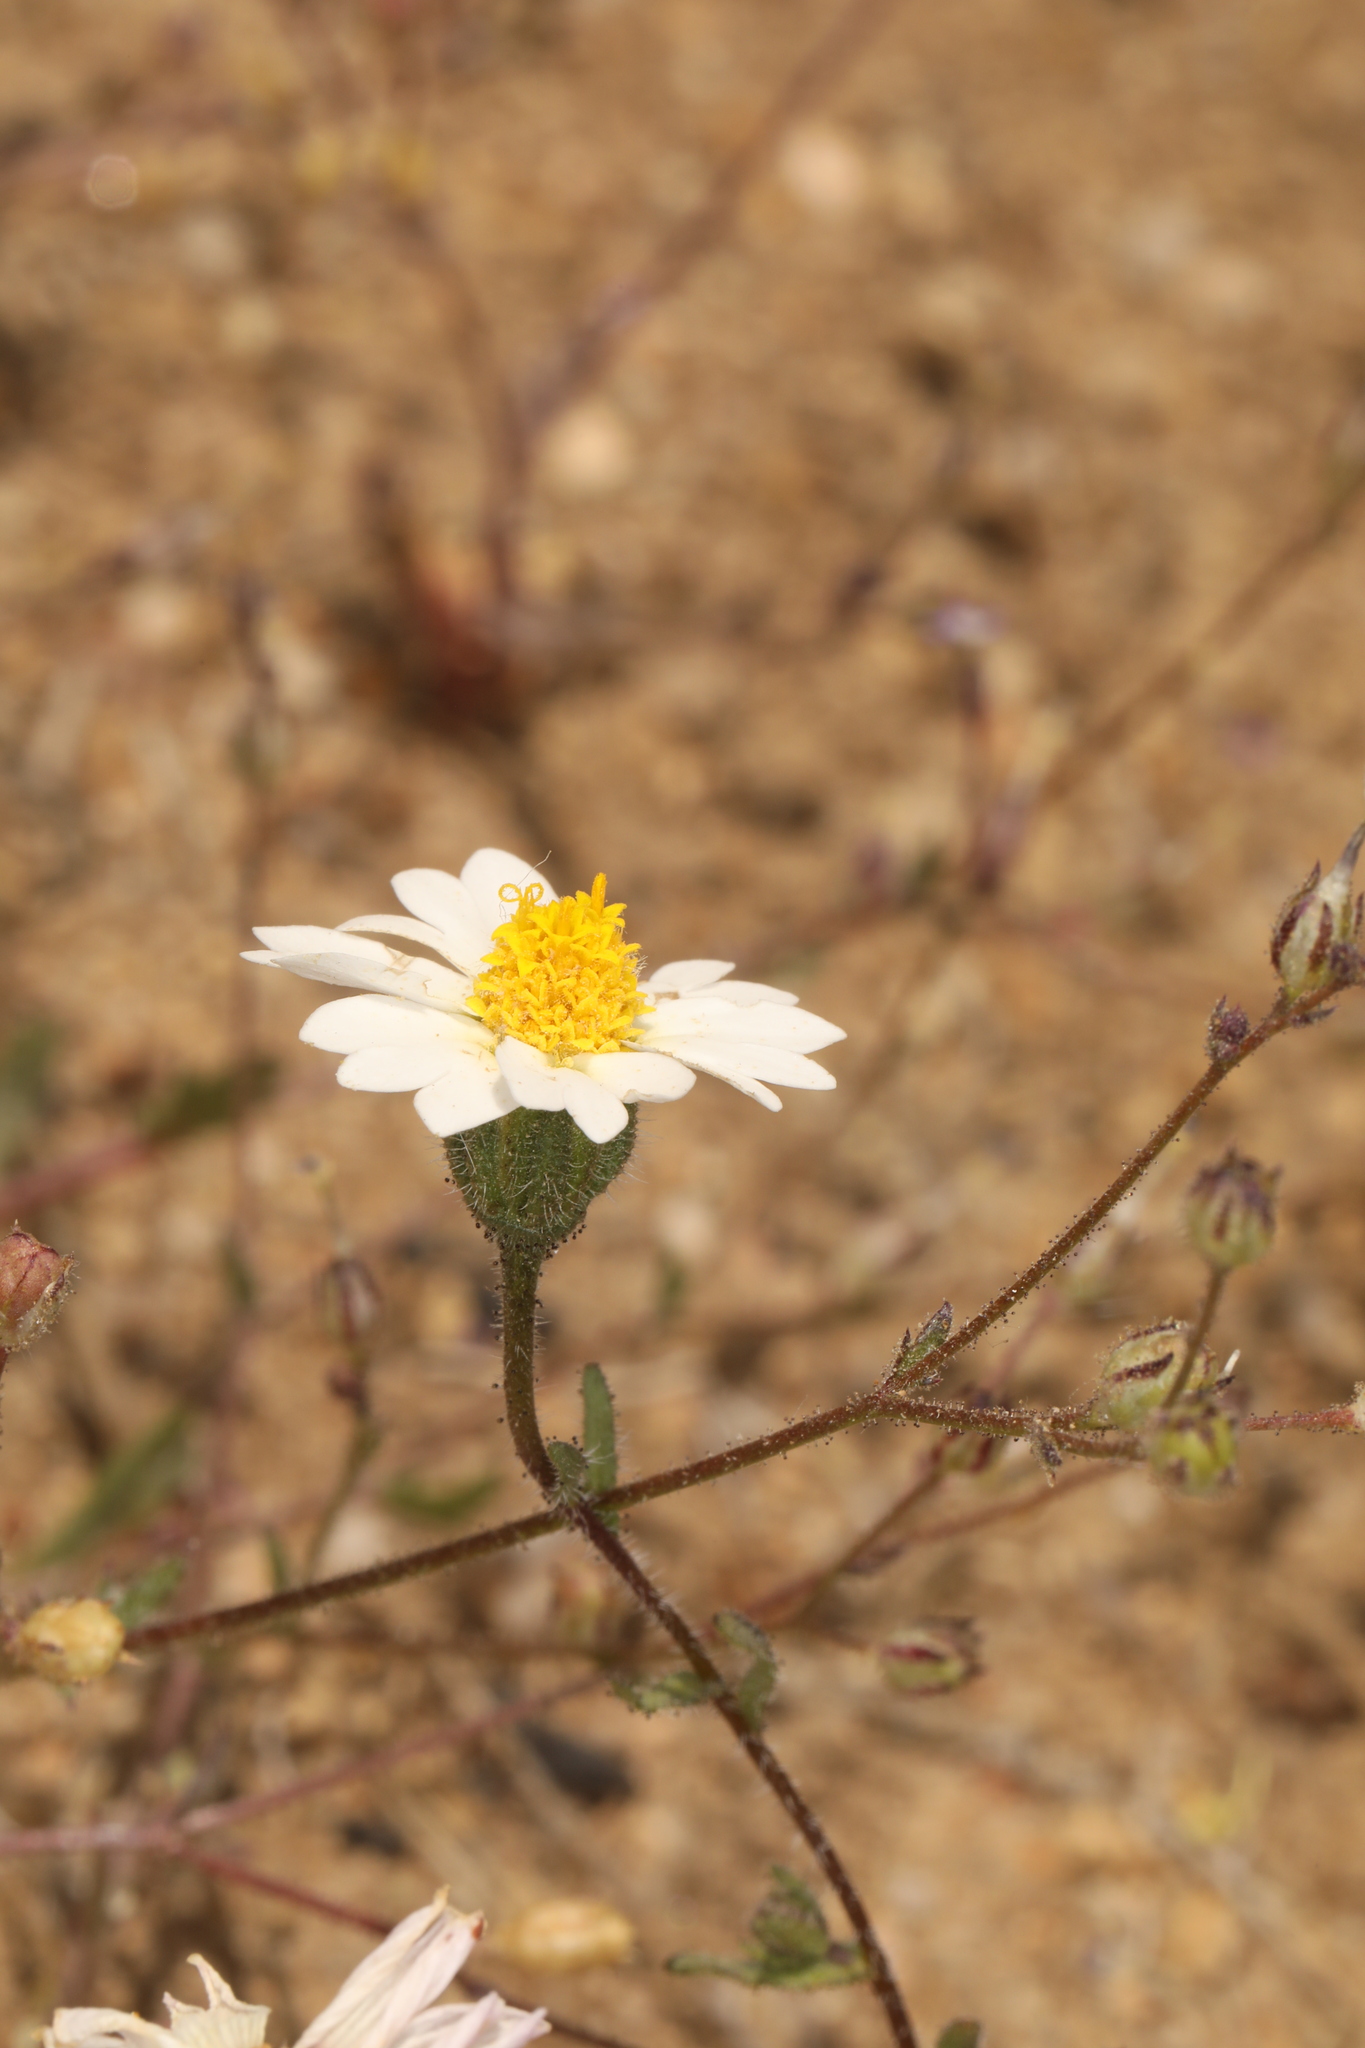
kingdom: Plantae
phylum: Tracheophyta
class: Magnoliopsida
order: Asterales
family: Asteraceae
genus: Layia
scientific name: Layia glandulosa
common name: White layia
